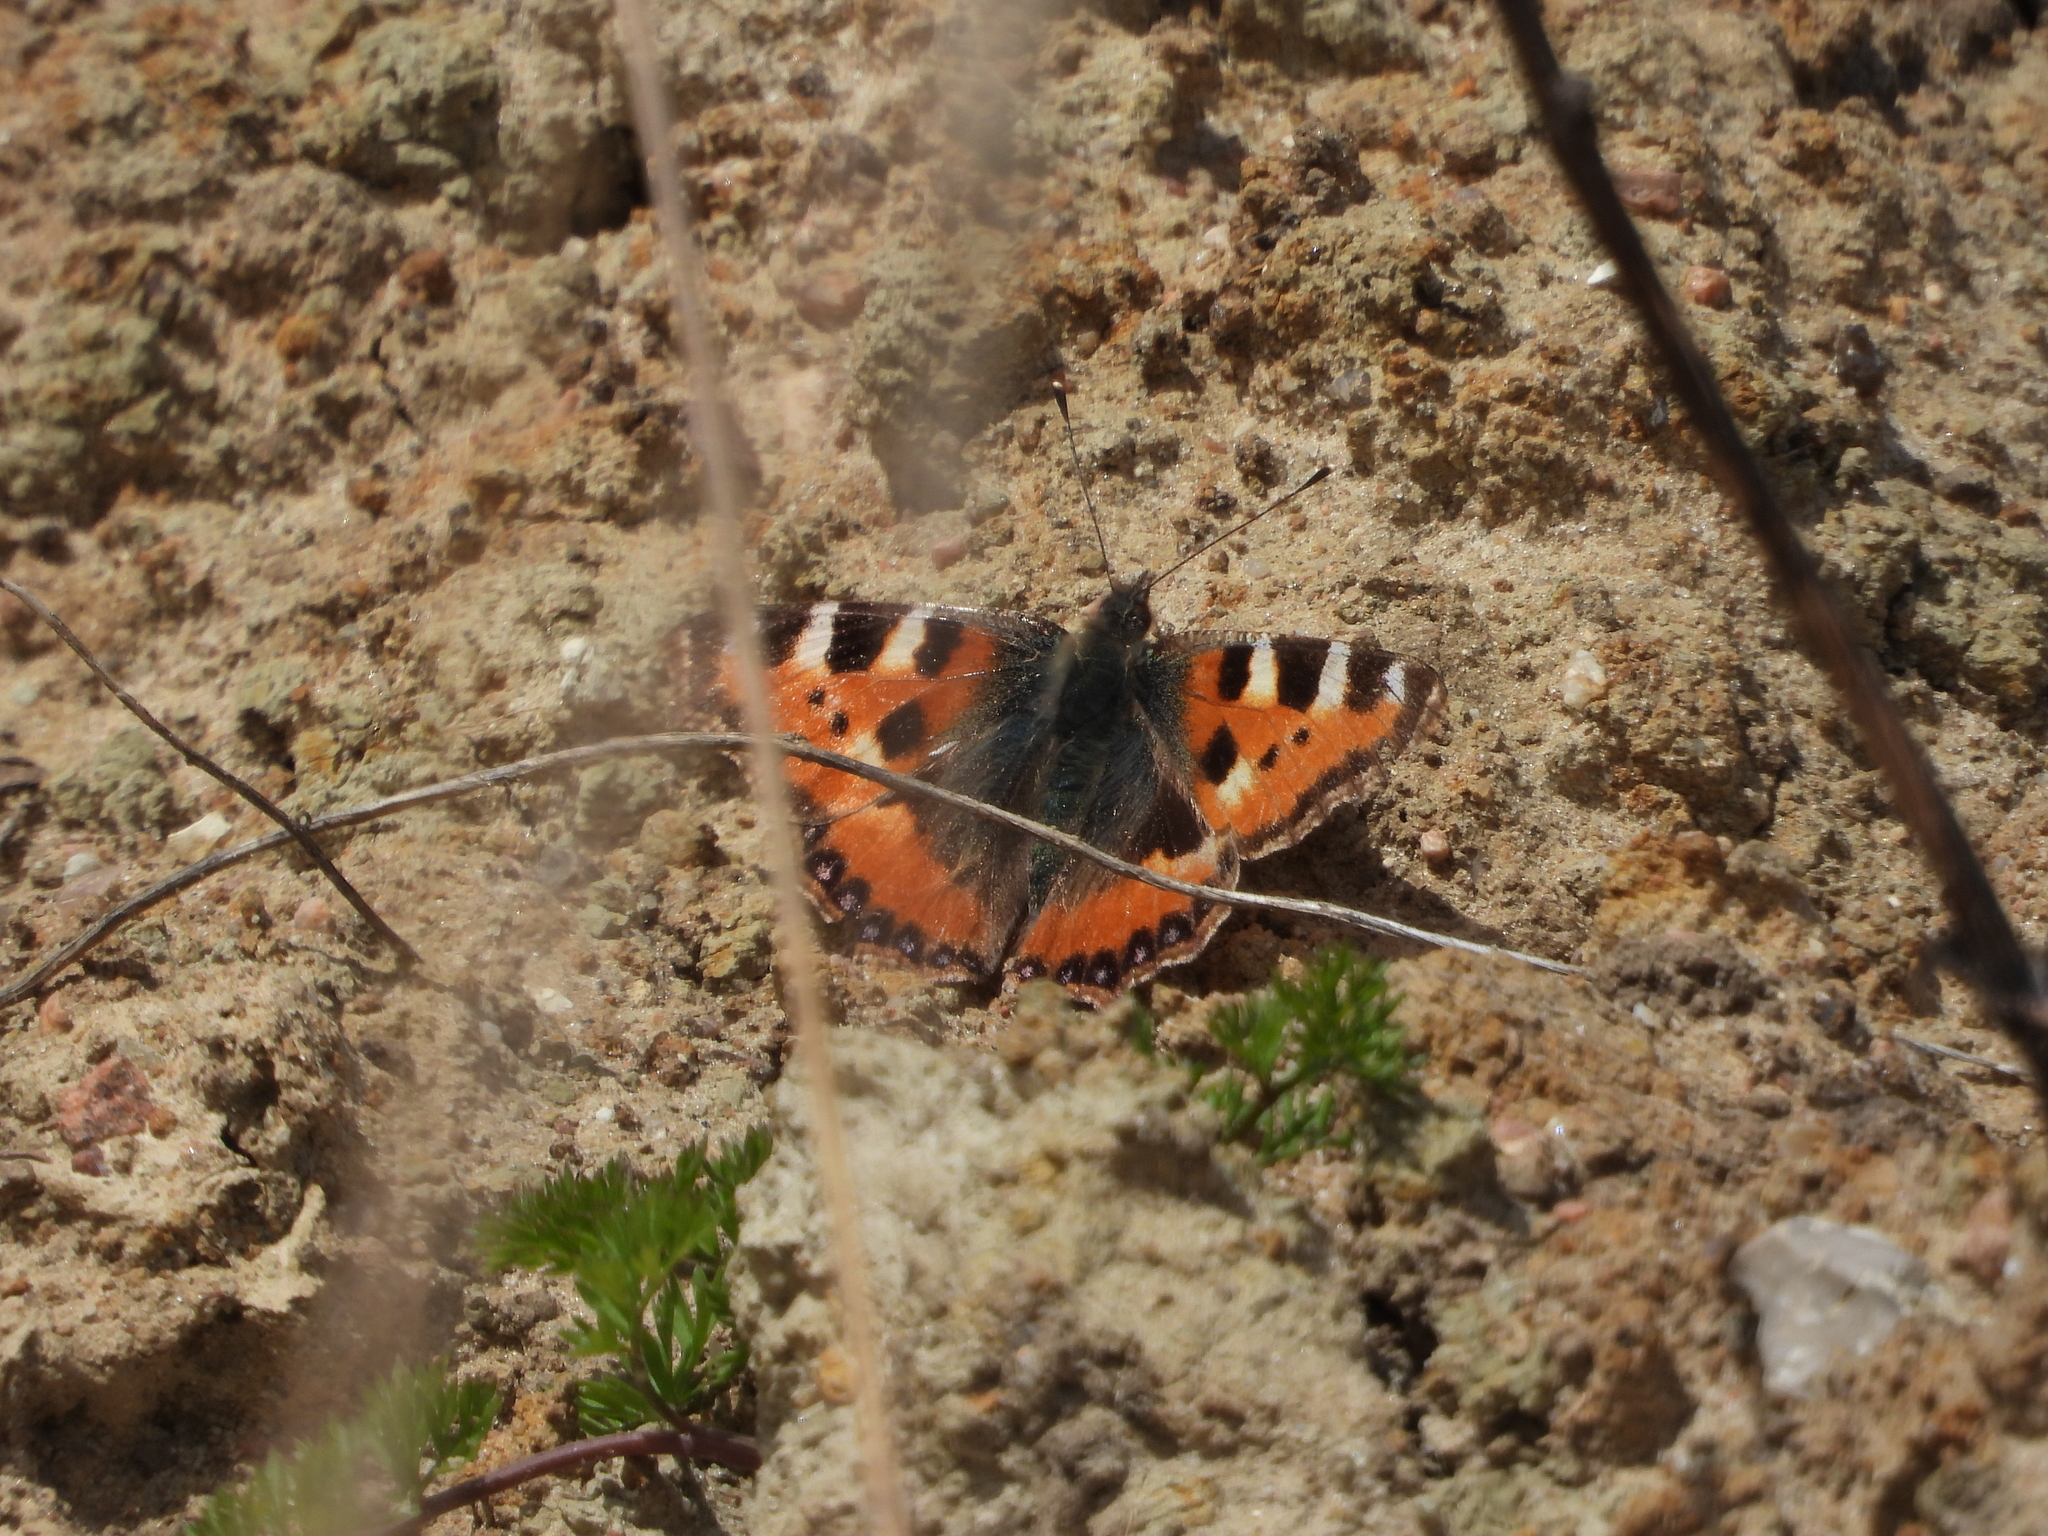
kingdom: Animalia
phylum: Arthropoda
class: Insecta
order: Lepidoptera
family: Nymphalidae
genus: Aglais
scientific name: Aglais urticae
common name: Small tortoiseshell
